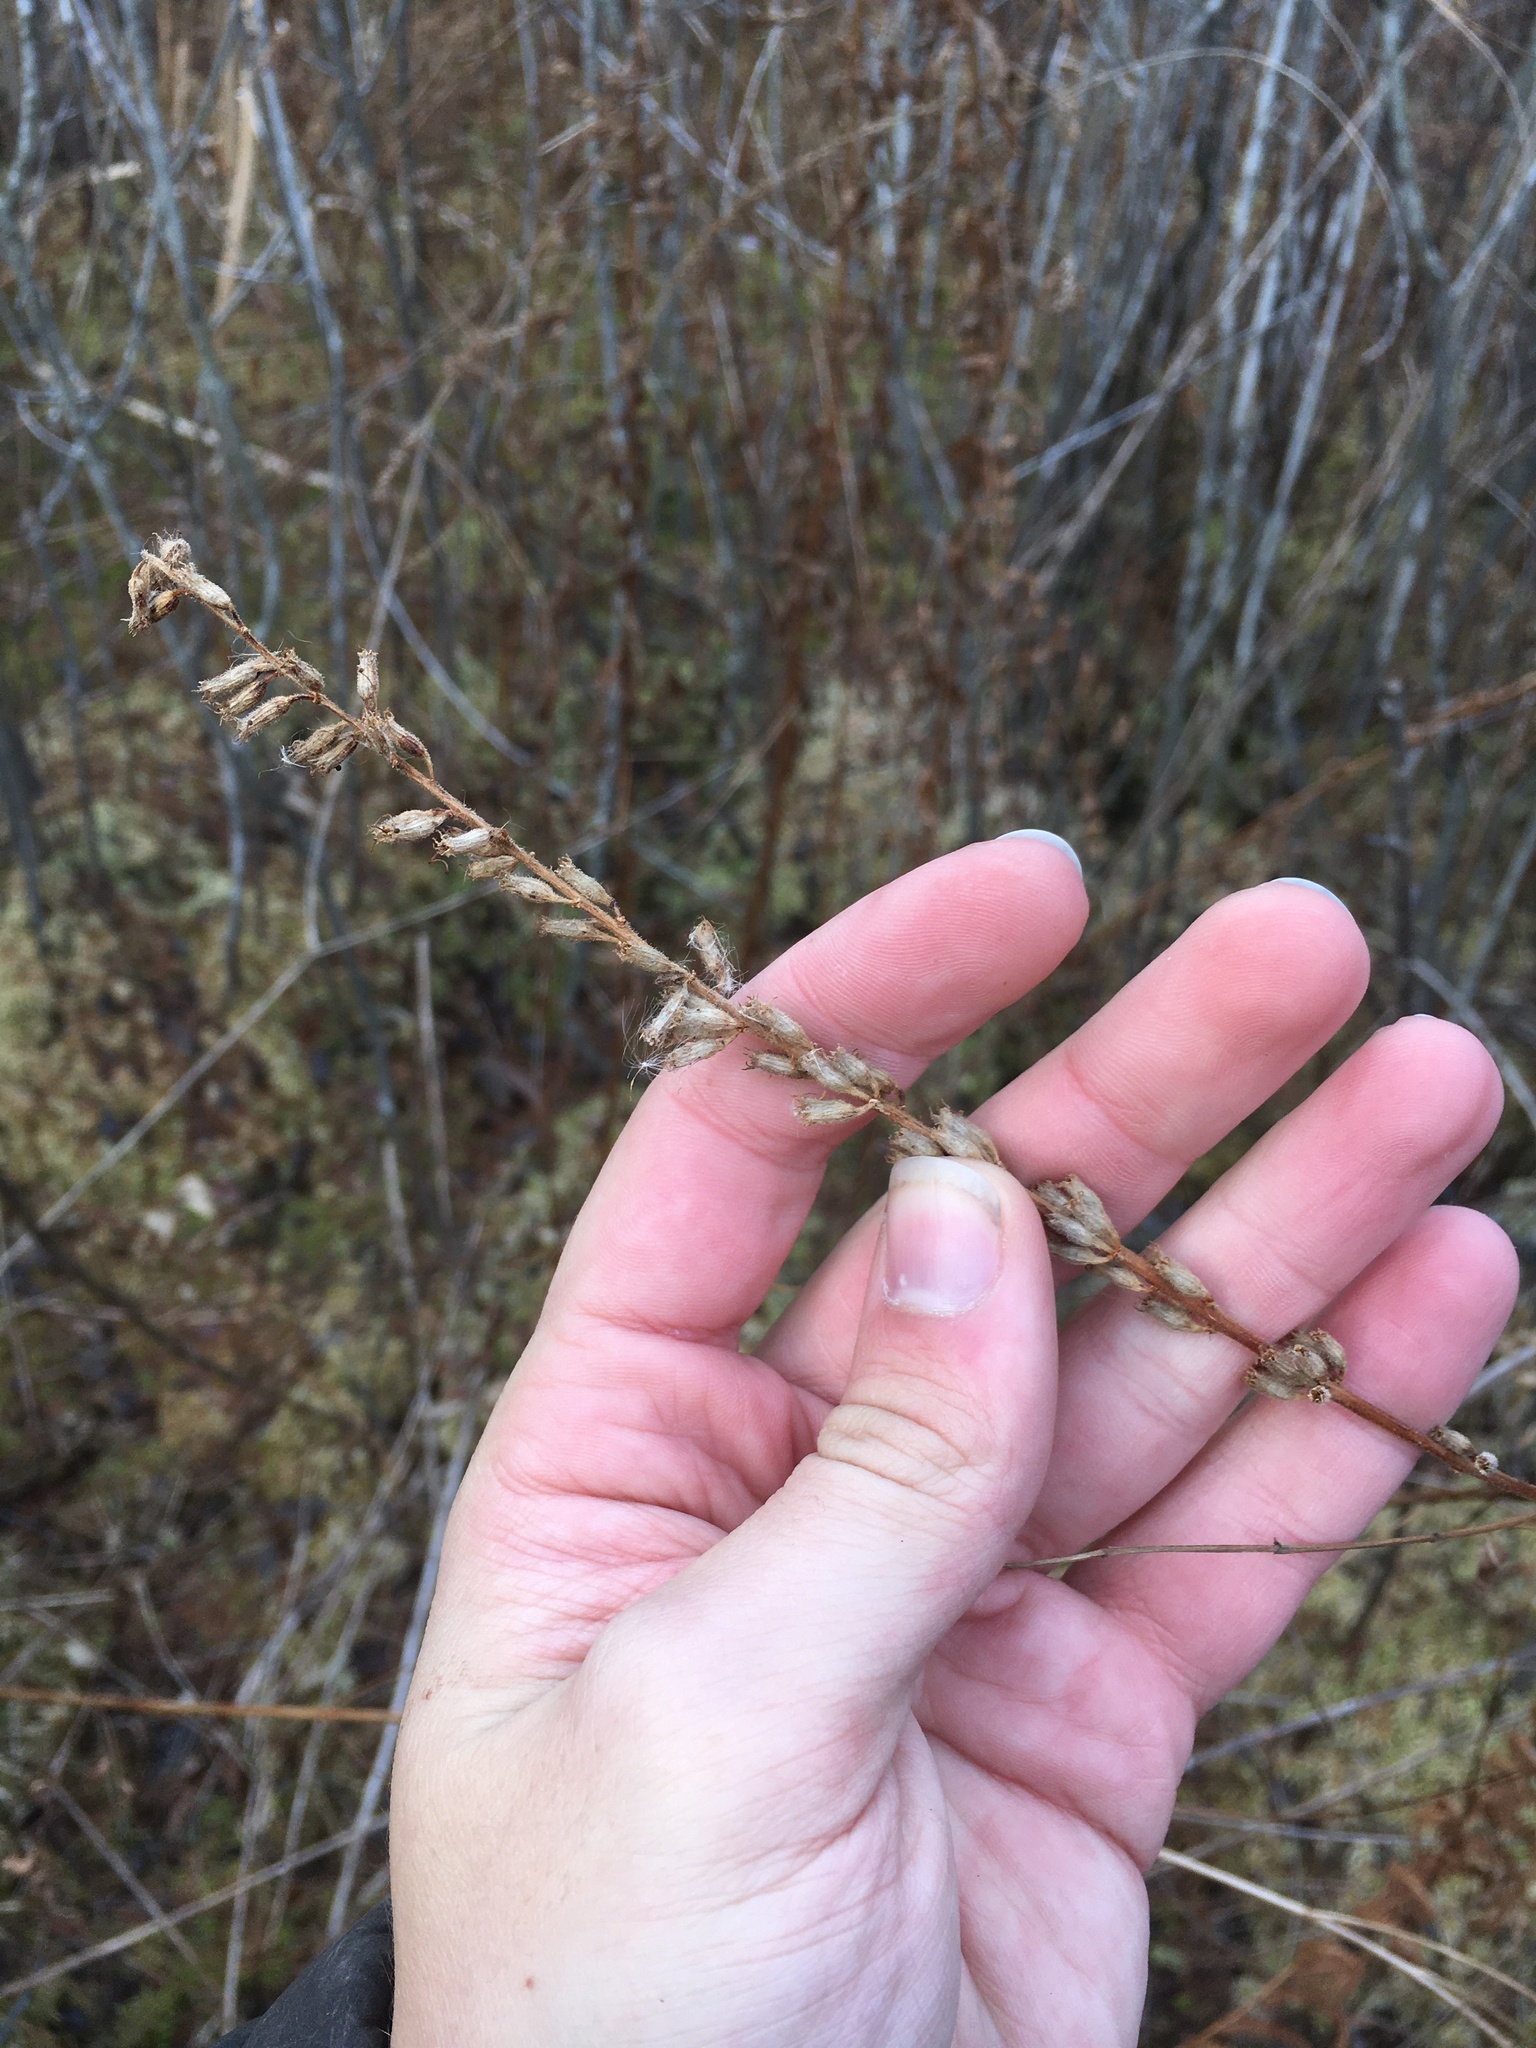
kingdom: Plantae
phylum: Tracheophyta
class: Magnoliopsida
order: Myrtales
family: Lythraceae
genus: Lythrum
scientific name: Lythrum salicaria
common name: Purple loosestrife
